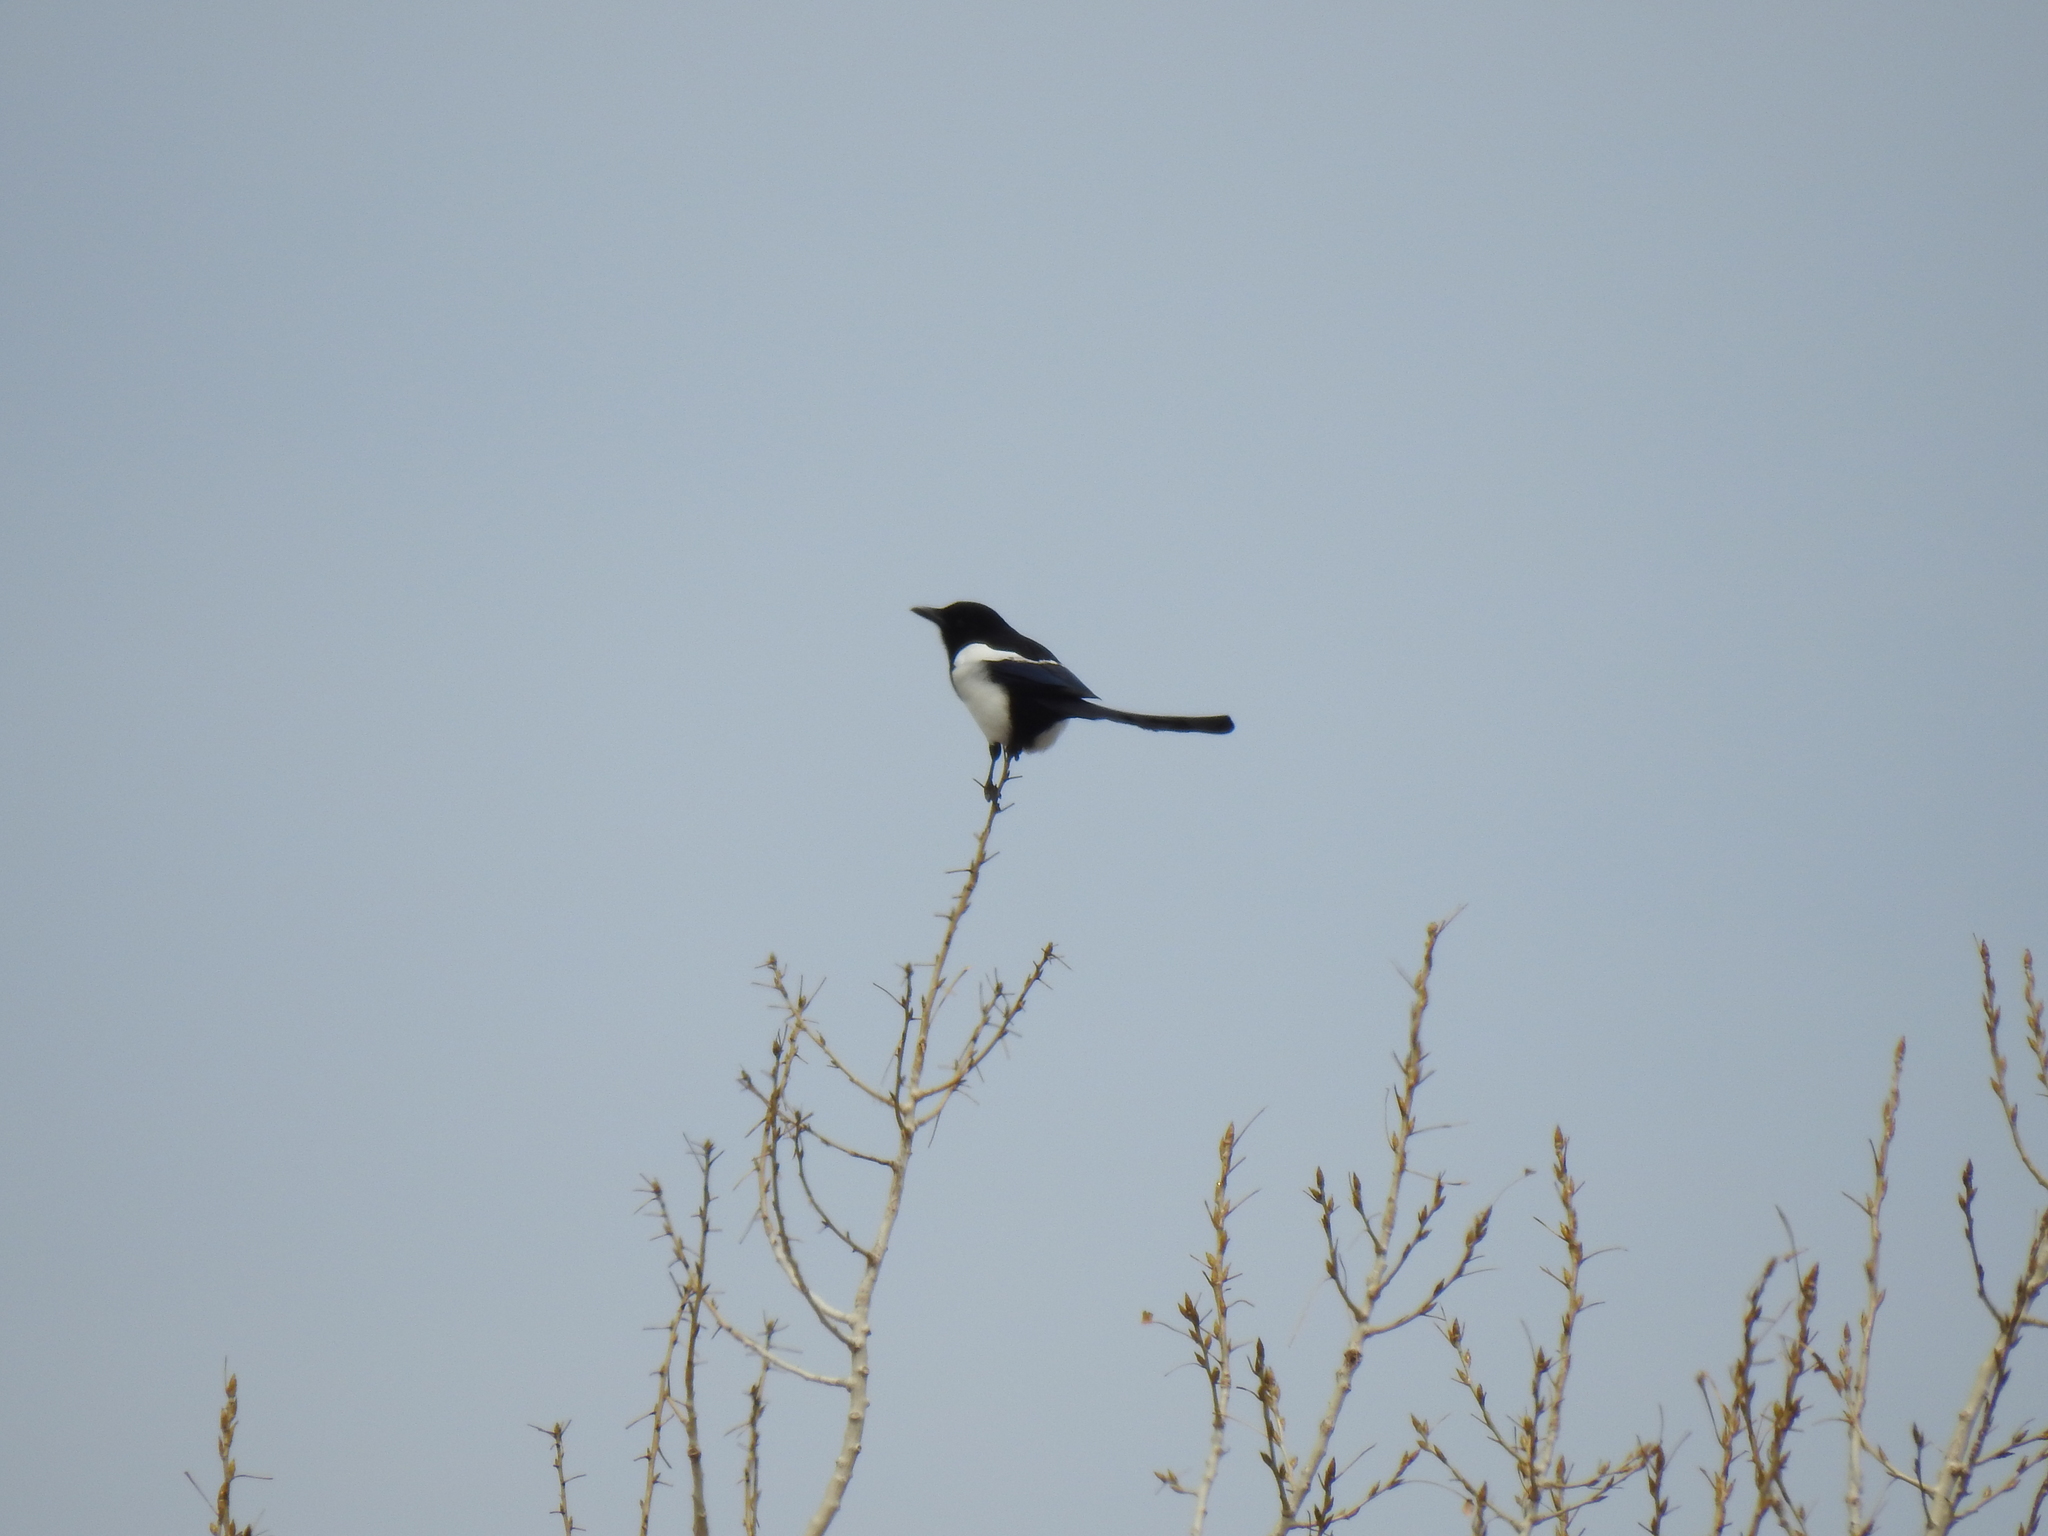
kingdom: Animalia
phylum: Chordata
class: Aves
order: Passeriformes
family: Corvidae
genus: Pica
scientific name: Pica hudsonia
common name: Black-billed magpie
